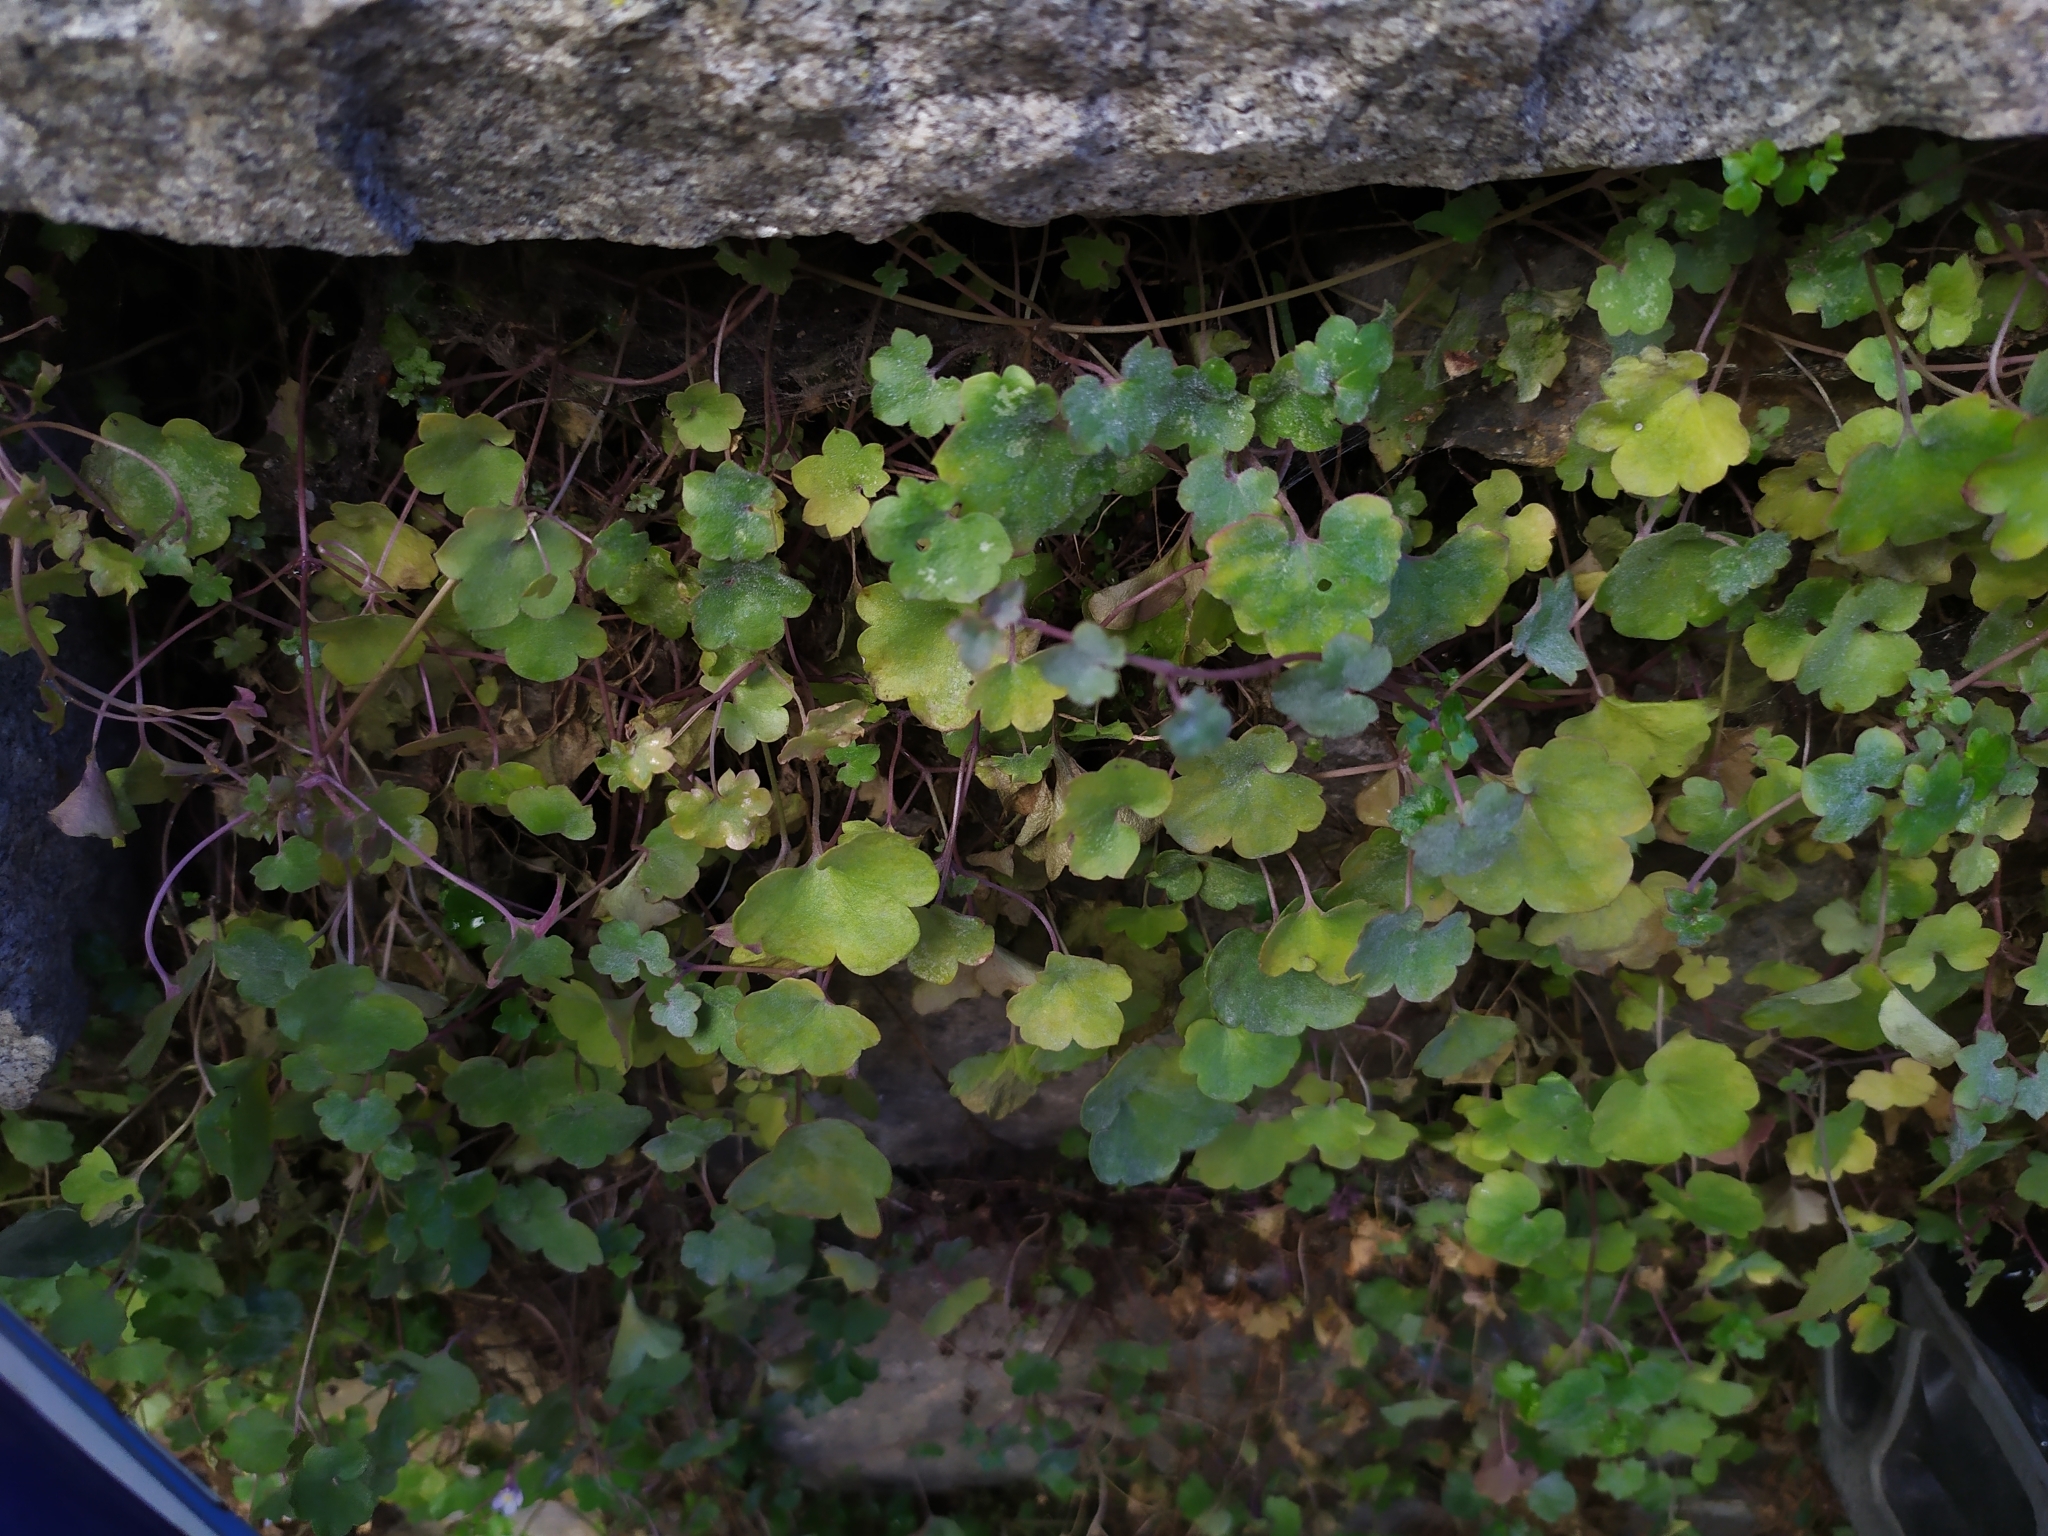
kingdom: Plantae
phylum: Tracheophyta
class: Magnoliopsida
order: Lamiales
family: Plantaginaceae
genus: Cymbalaria
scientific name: Cymbalaria muralis
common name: Ivy-leaved toadflax
